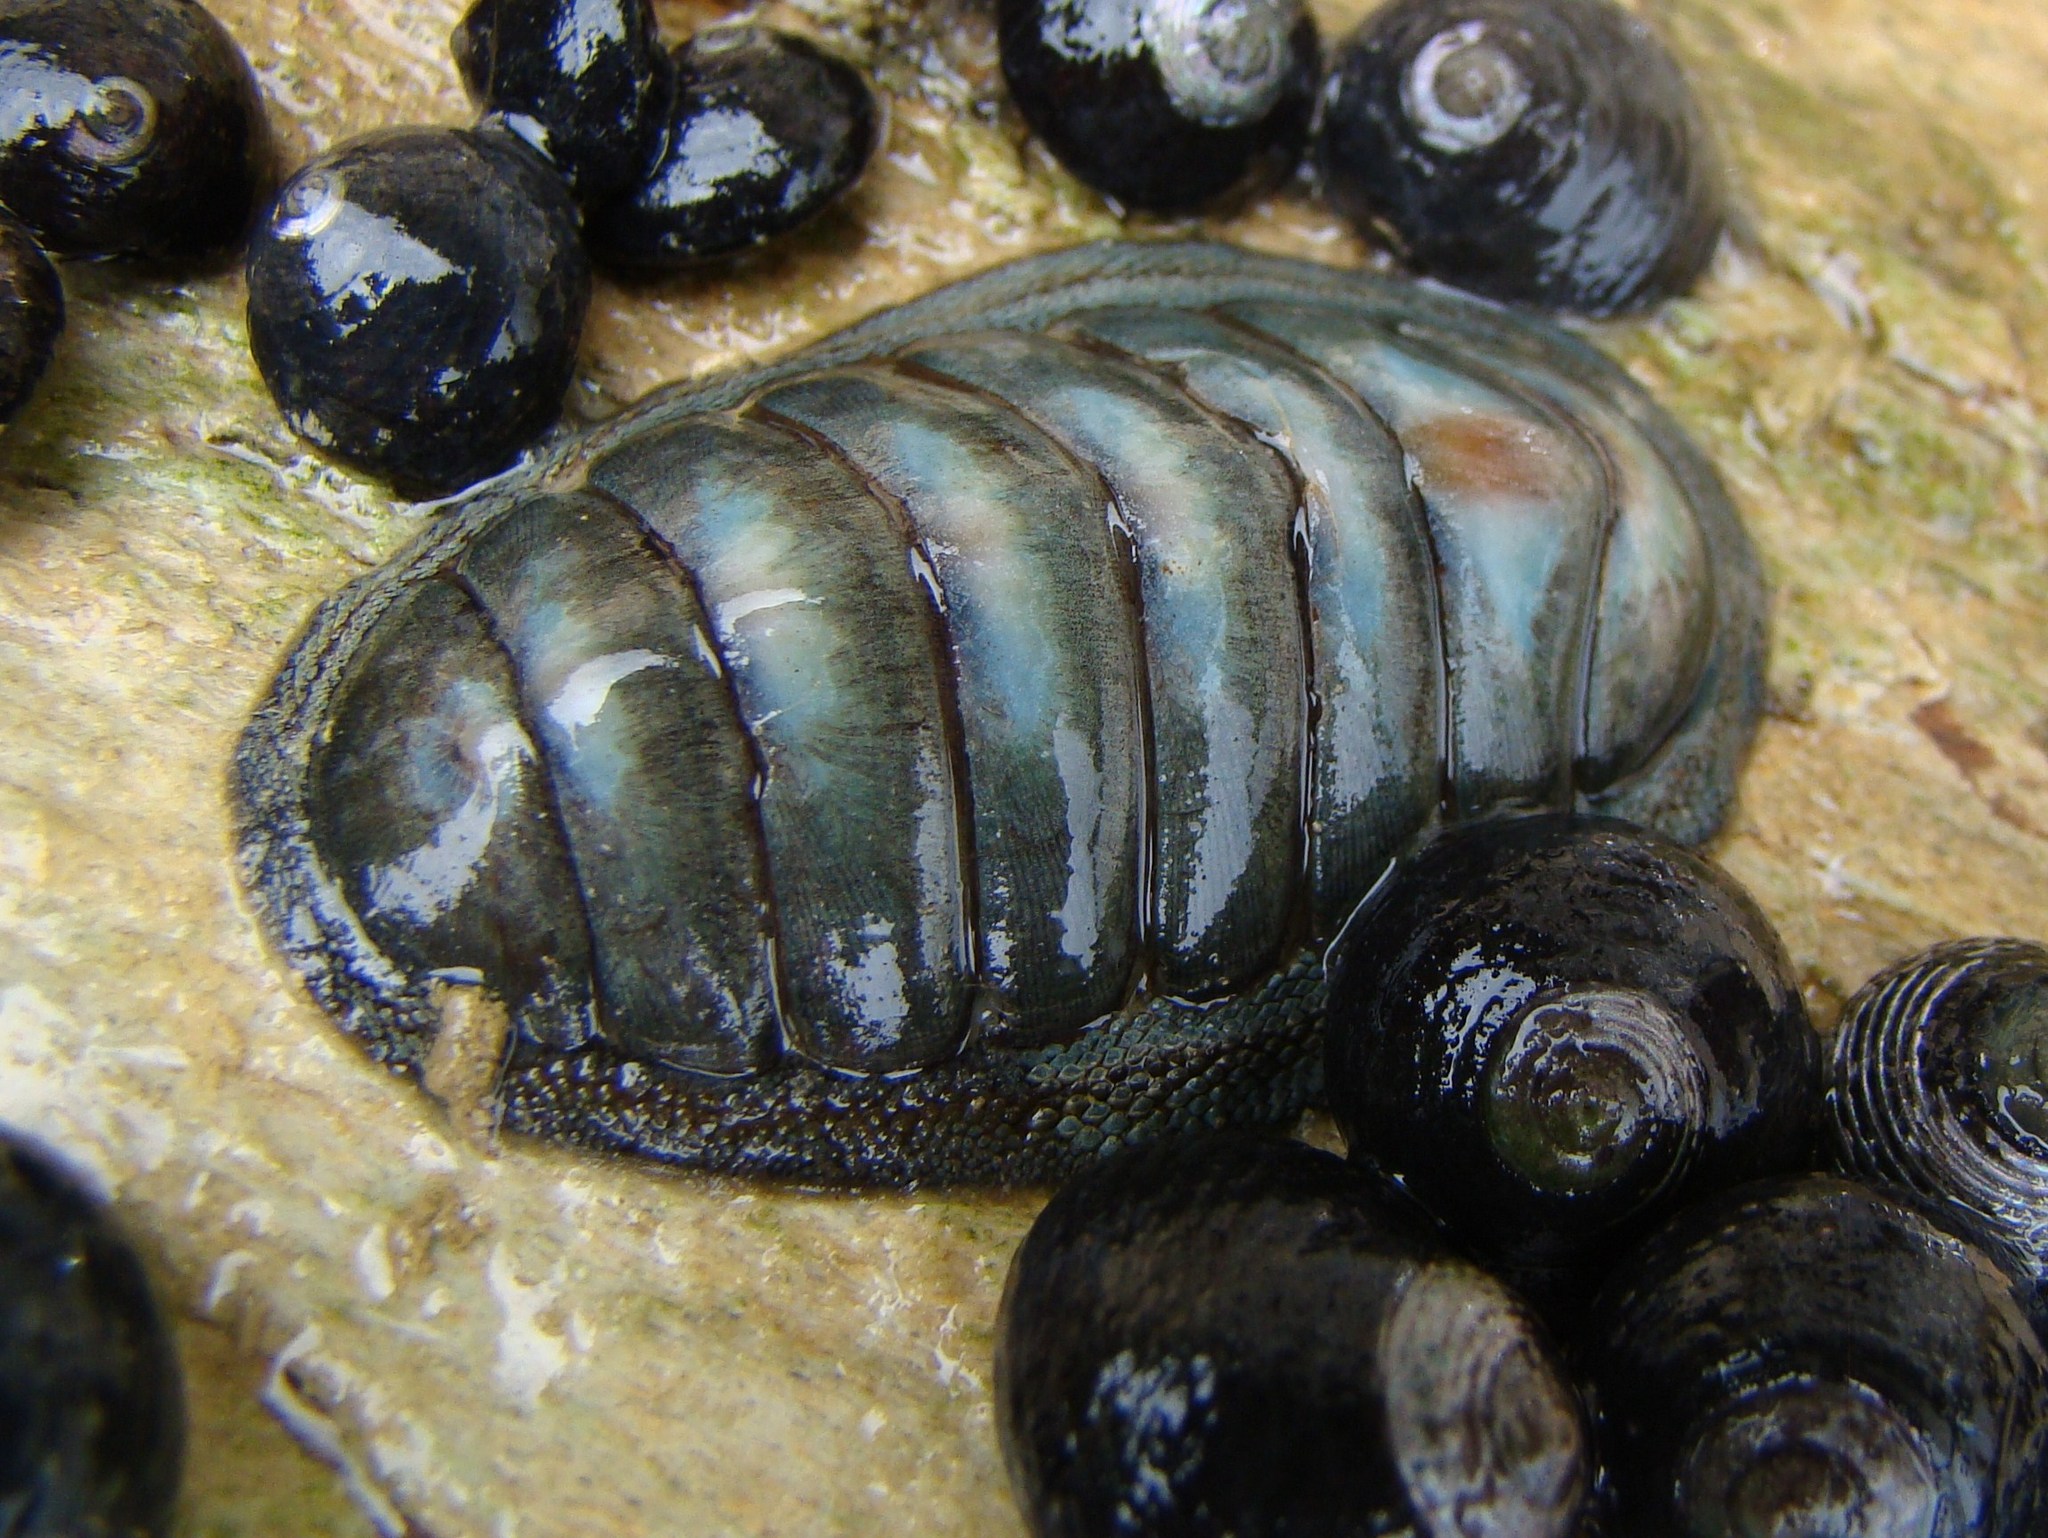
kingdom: Animalia
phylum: Mollusca
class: Polyplacophora
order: Chitonida
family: Chitonidae
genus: Chiton
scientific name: Chiton glaucus
